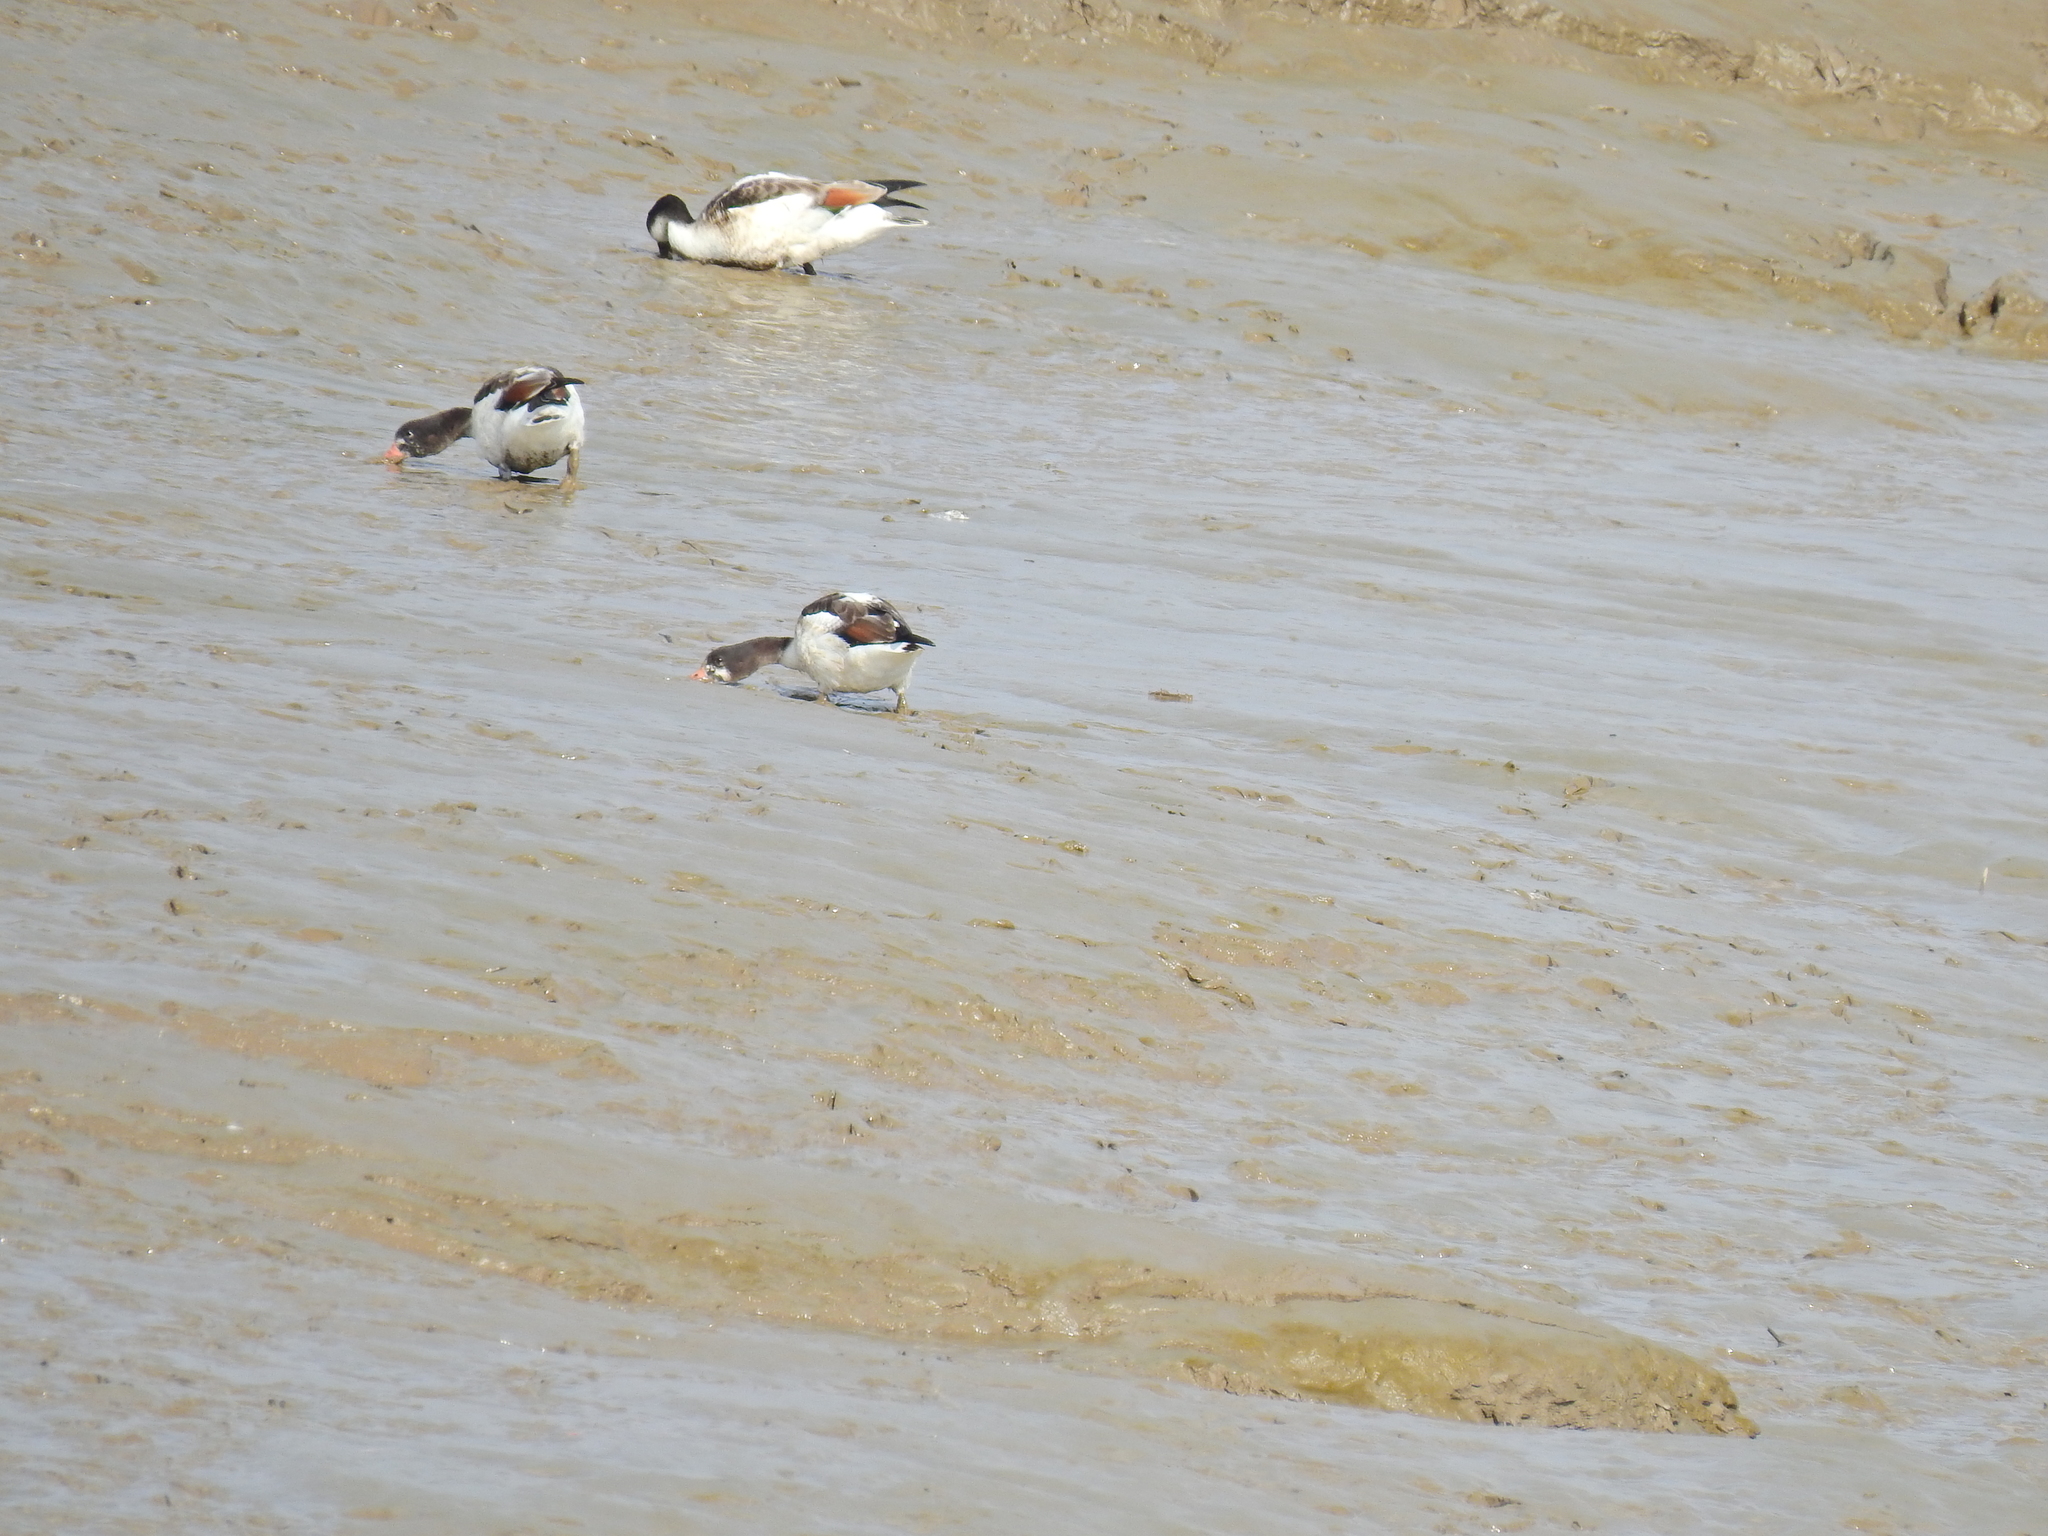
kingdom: Animalia
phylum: Chordata
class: Aves
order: Anseriformes
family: Anatidae
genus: Tadorna
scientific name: Tadorna tadorna
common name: Common shelduck
